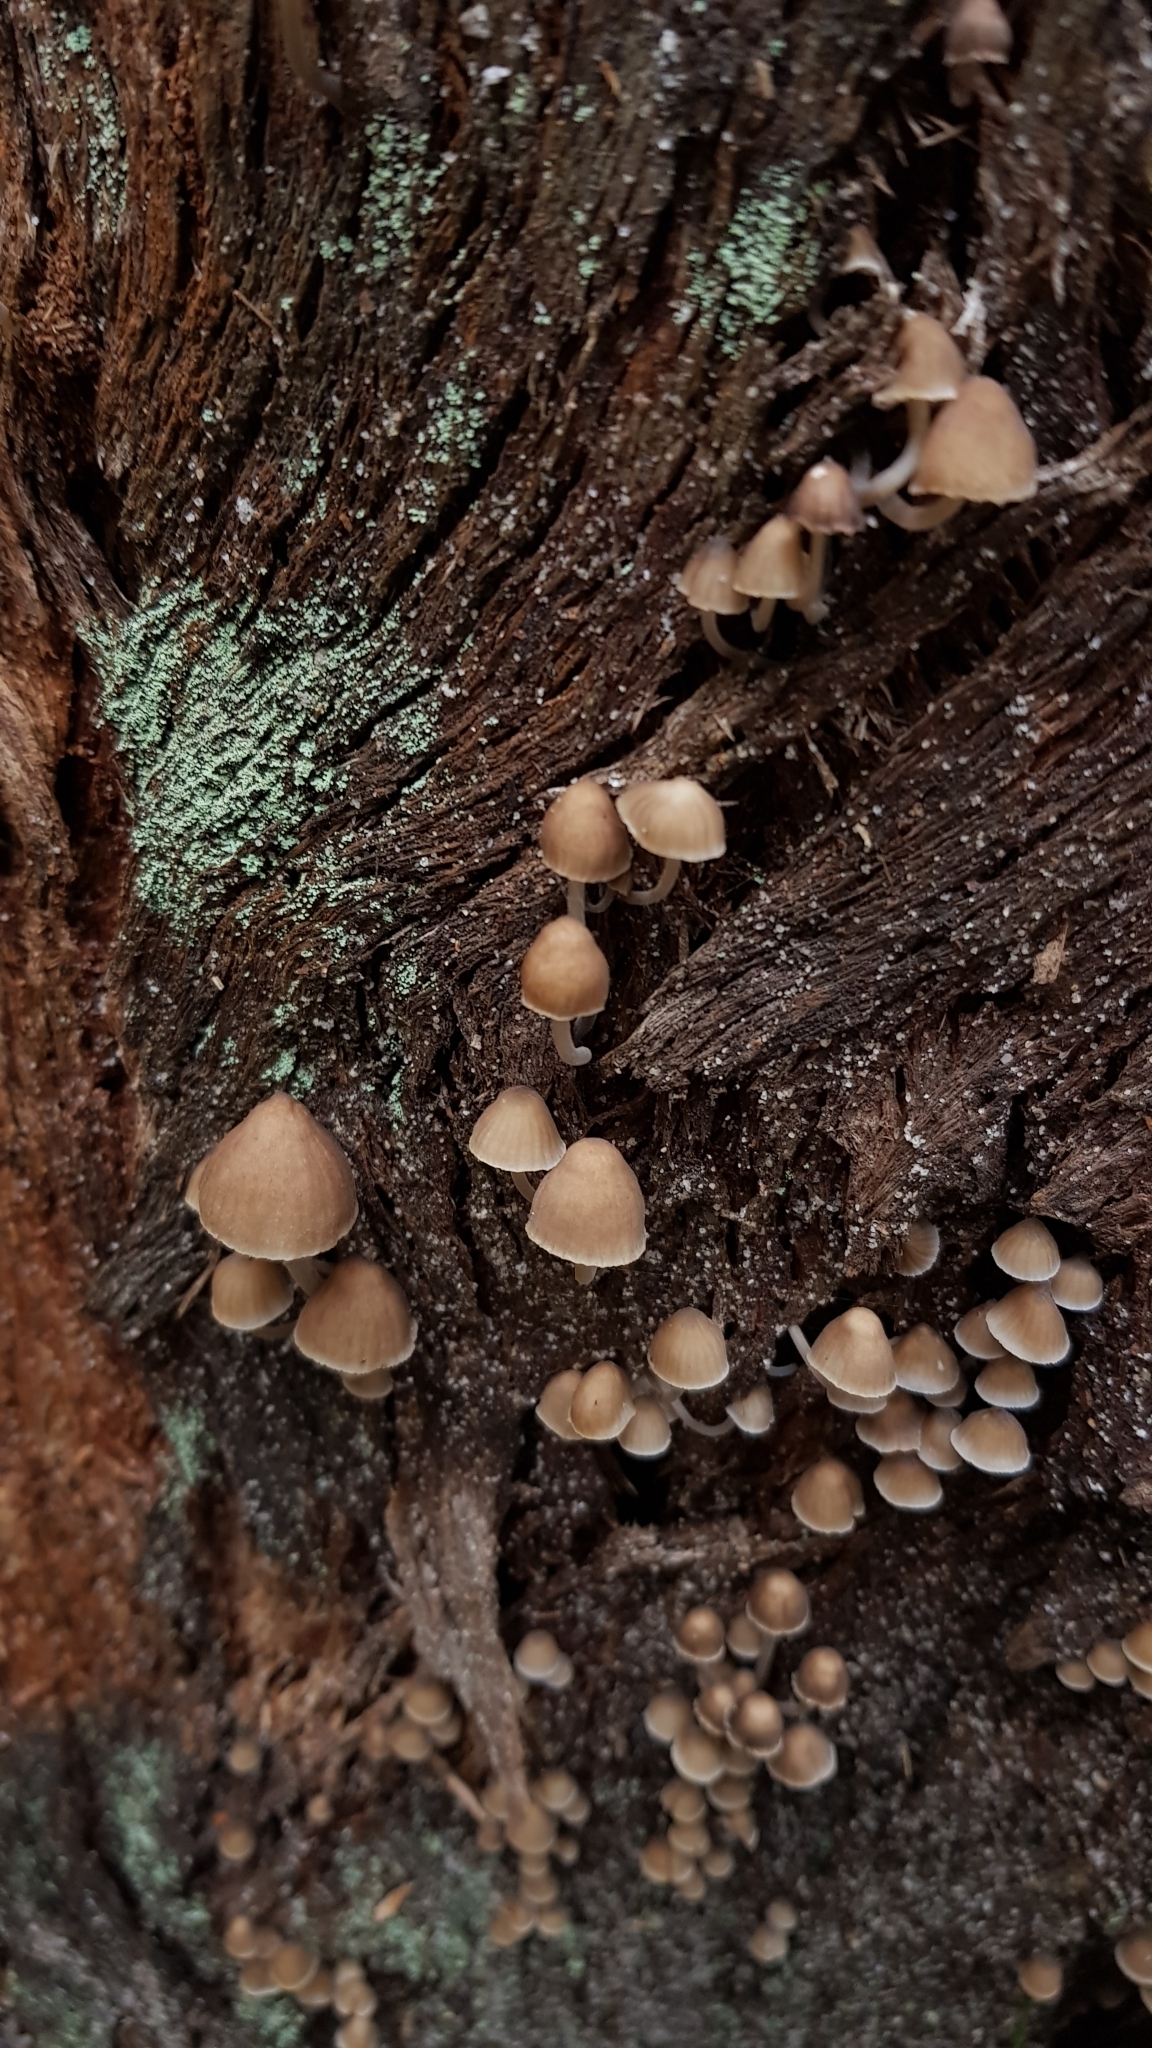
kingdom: Fungi
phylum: Basidiomycota
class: Agaricomycetes
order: Agaricales
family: Mycenaceae
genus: Mycena
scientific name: Mycena subgalericulata
